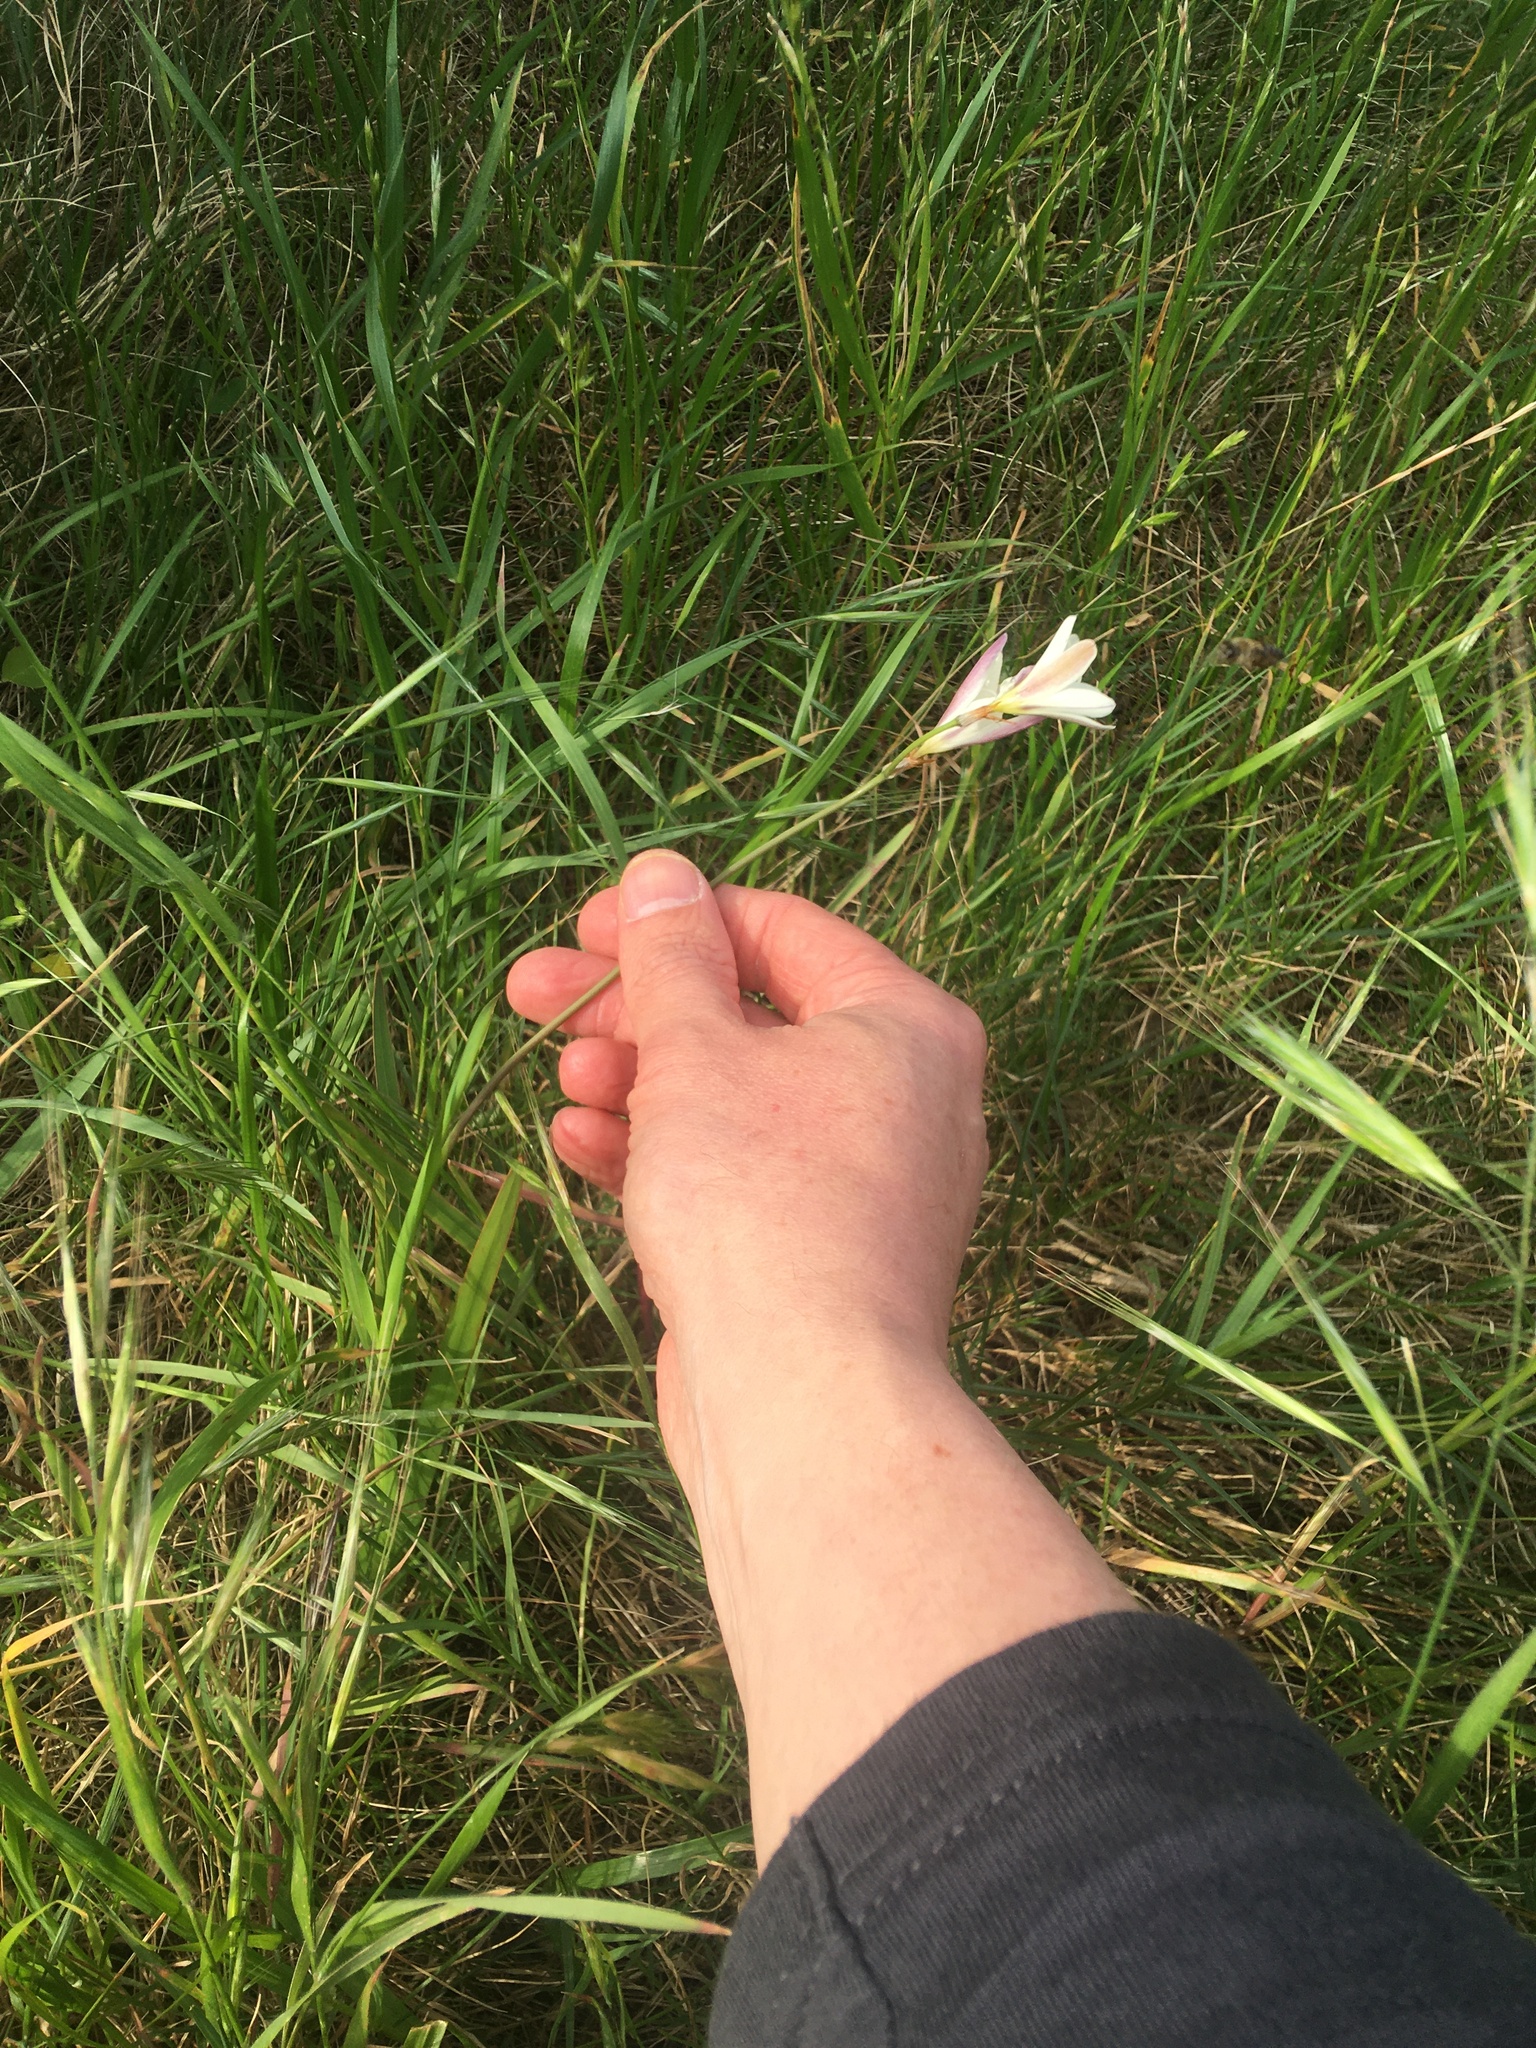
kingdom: Plantae
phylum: Tracheophyta
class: Liliopsida
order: Asparagales
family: Iridaceae
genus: Sparaxis
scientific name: Sparaxis bulbifera
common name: Harlequin-flower
